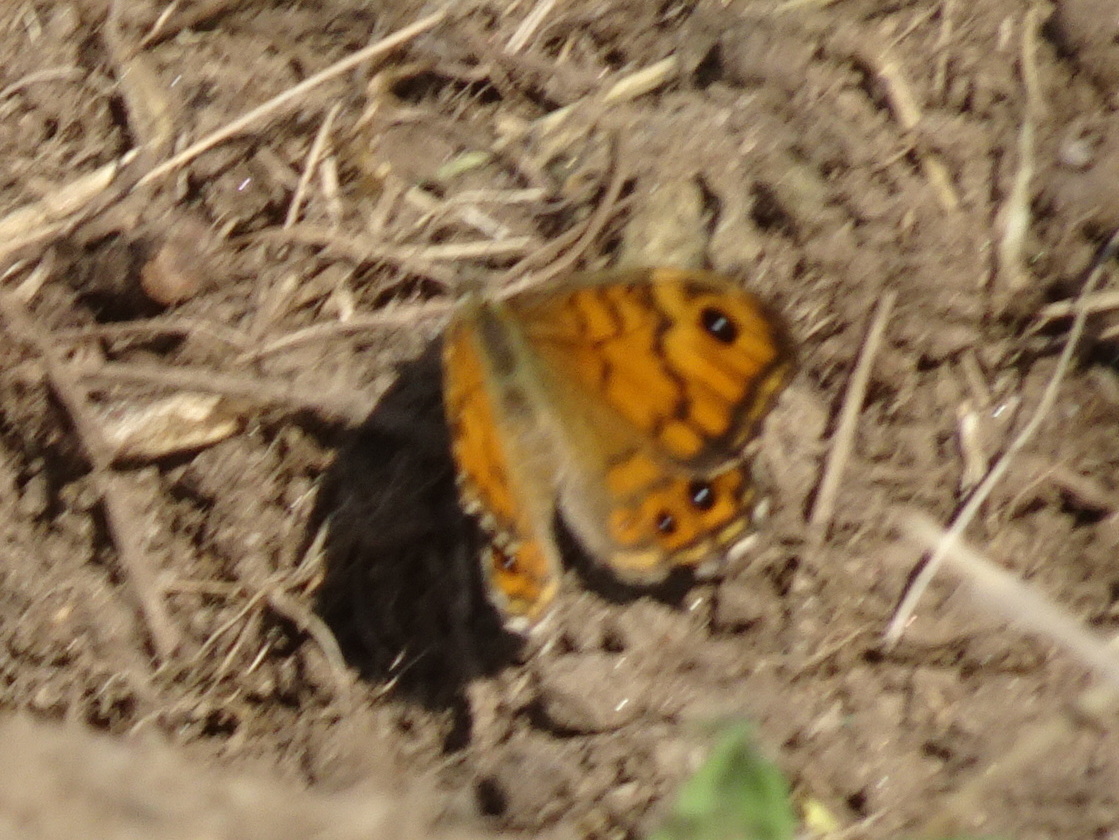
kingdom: Animalia
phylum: Arthropoda
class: Insecta
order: Lepidoptera
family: Nymphalidae
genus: Pararge
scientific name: Pararge Lasiommata megera
